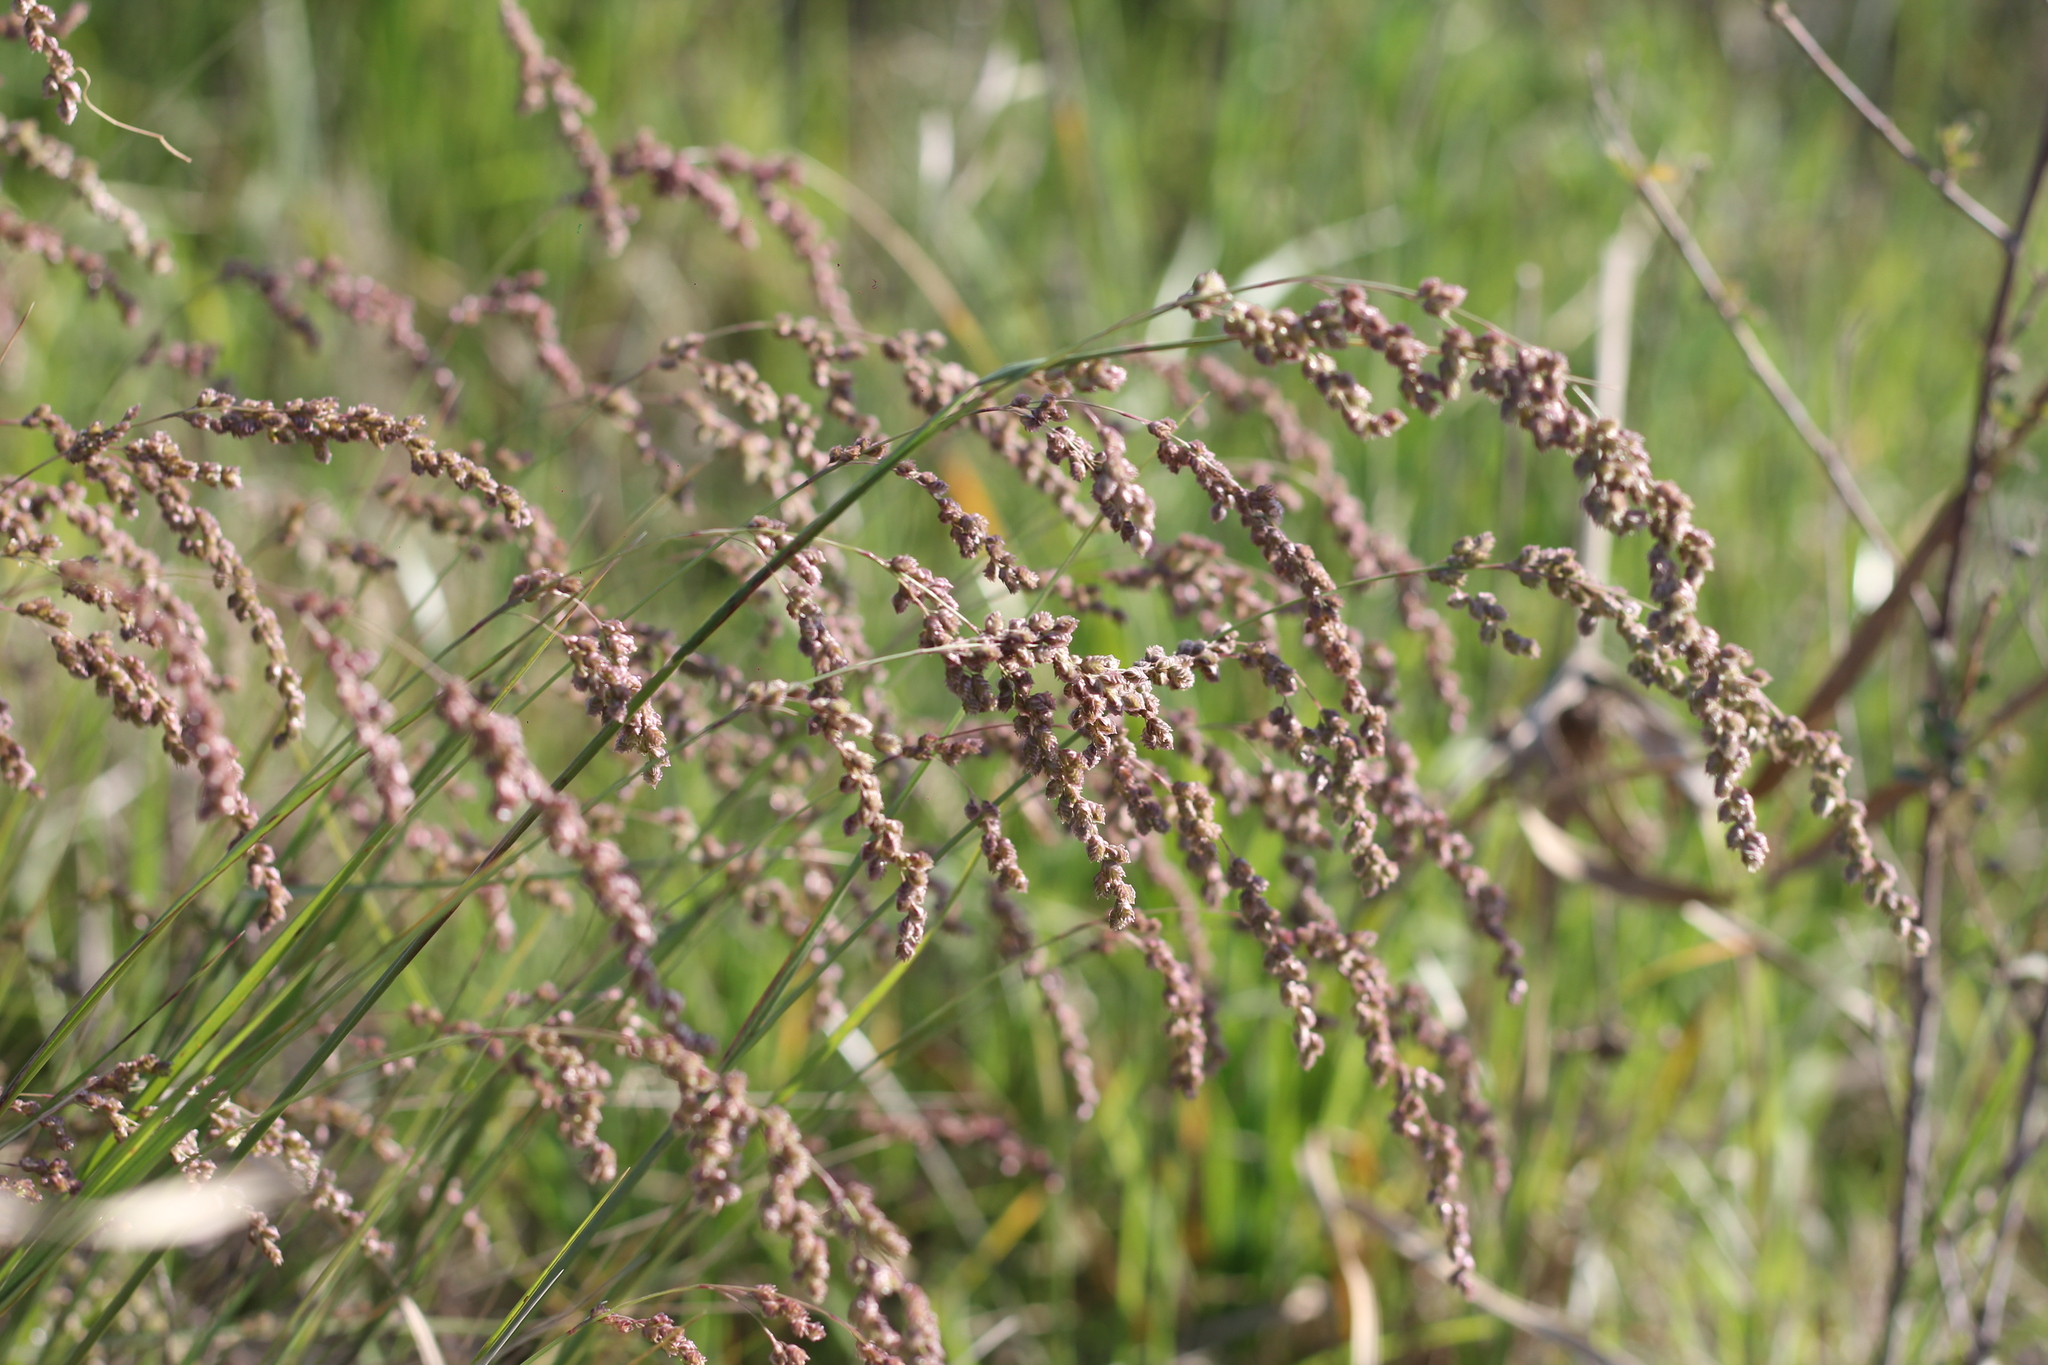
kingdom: Plantae
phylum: Tracheophyta
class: Liliopsida
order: Poales
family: Poaceae
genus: Chascolytrum
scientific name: Chascolytrum subaristatum
